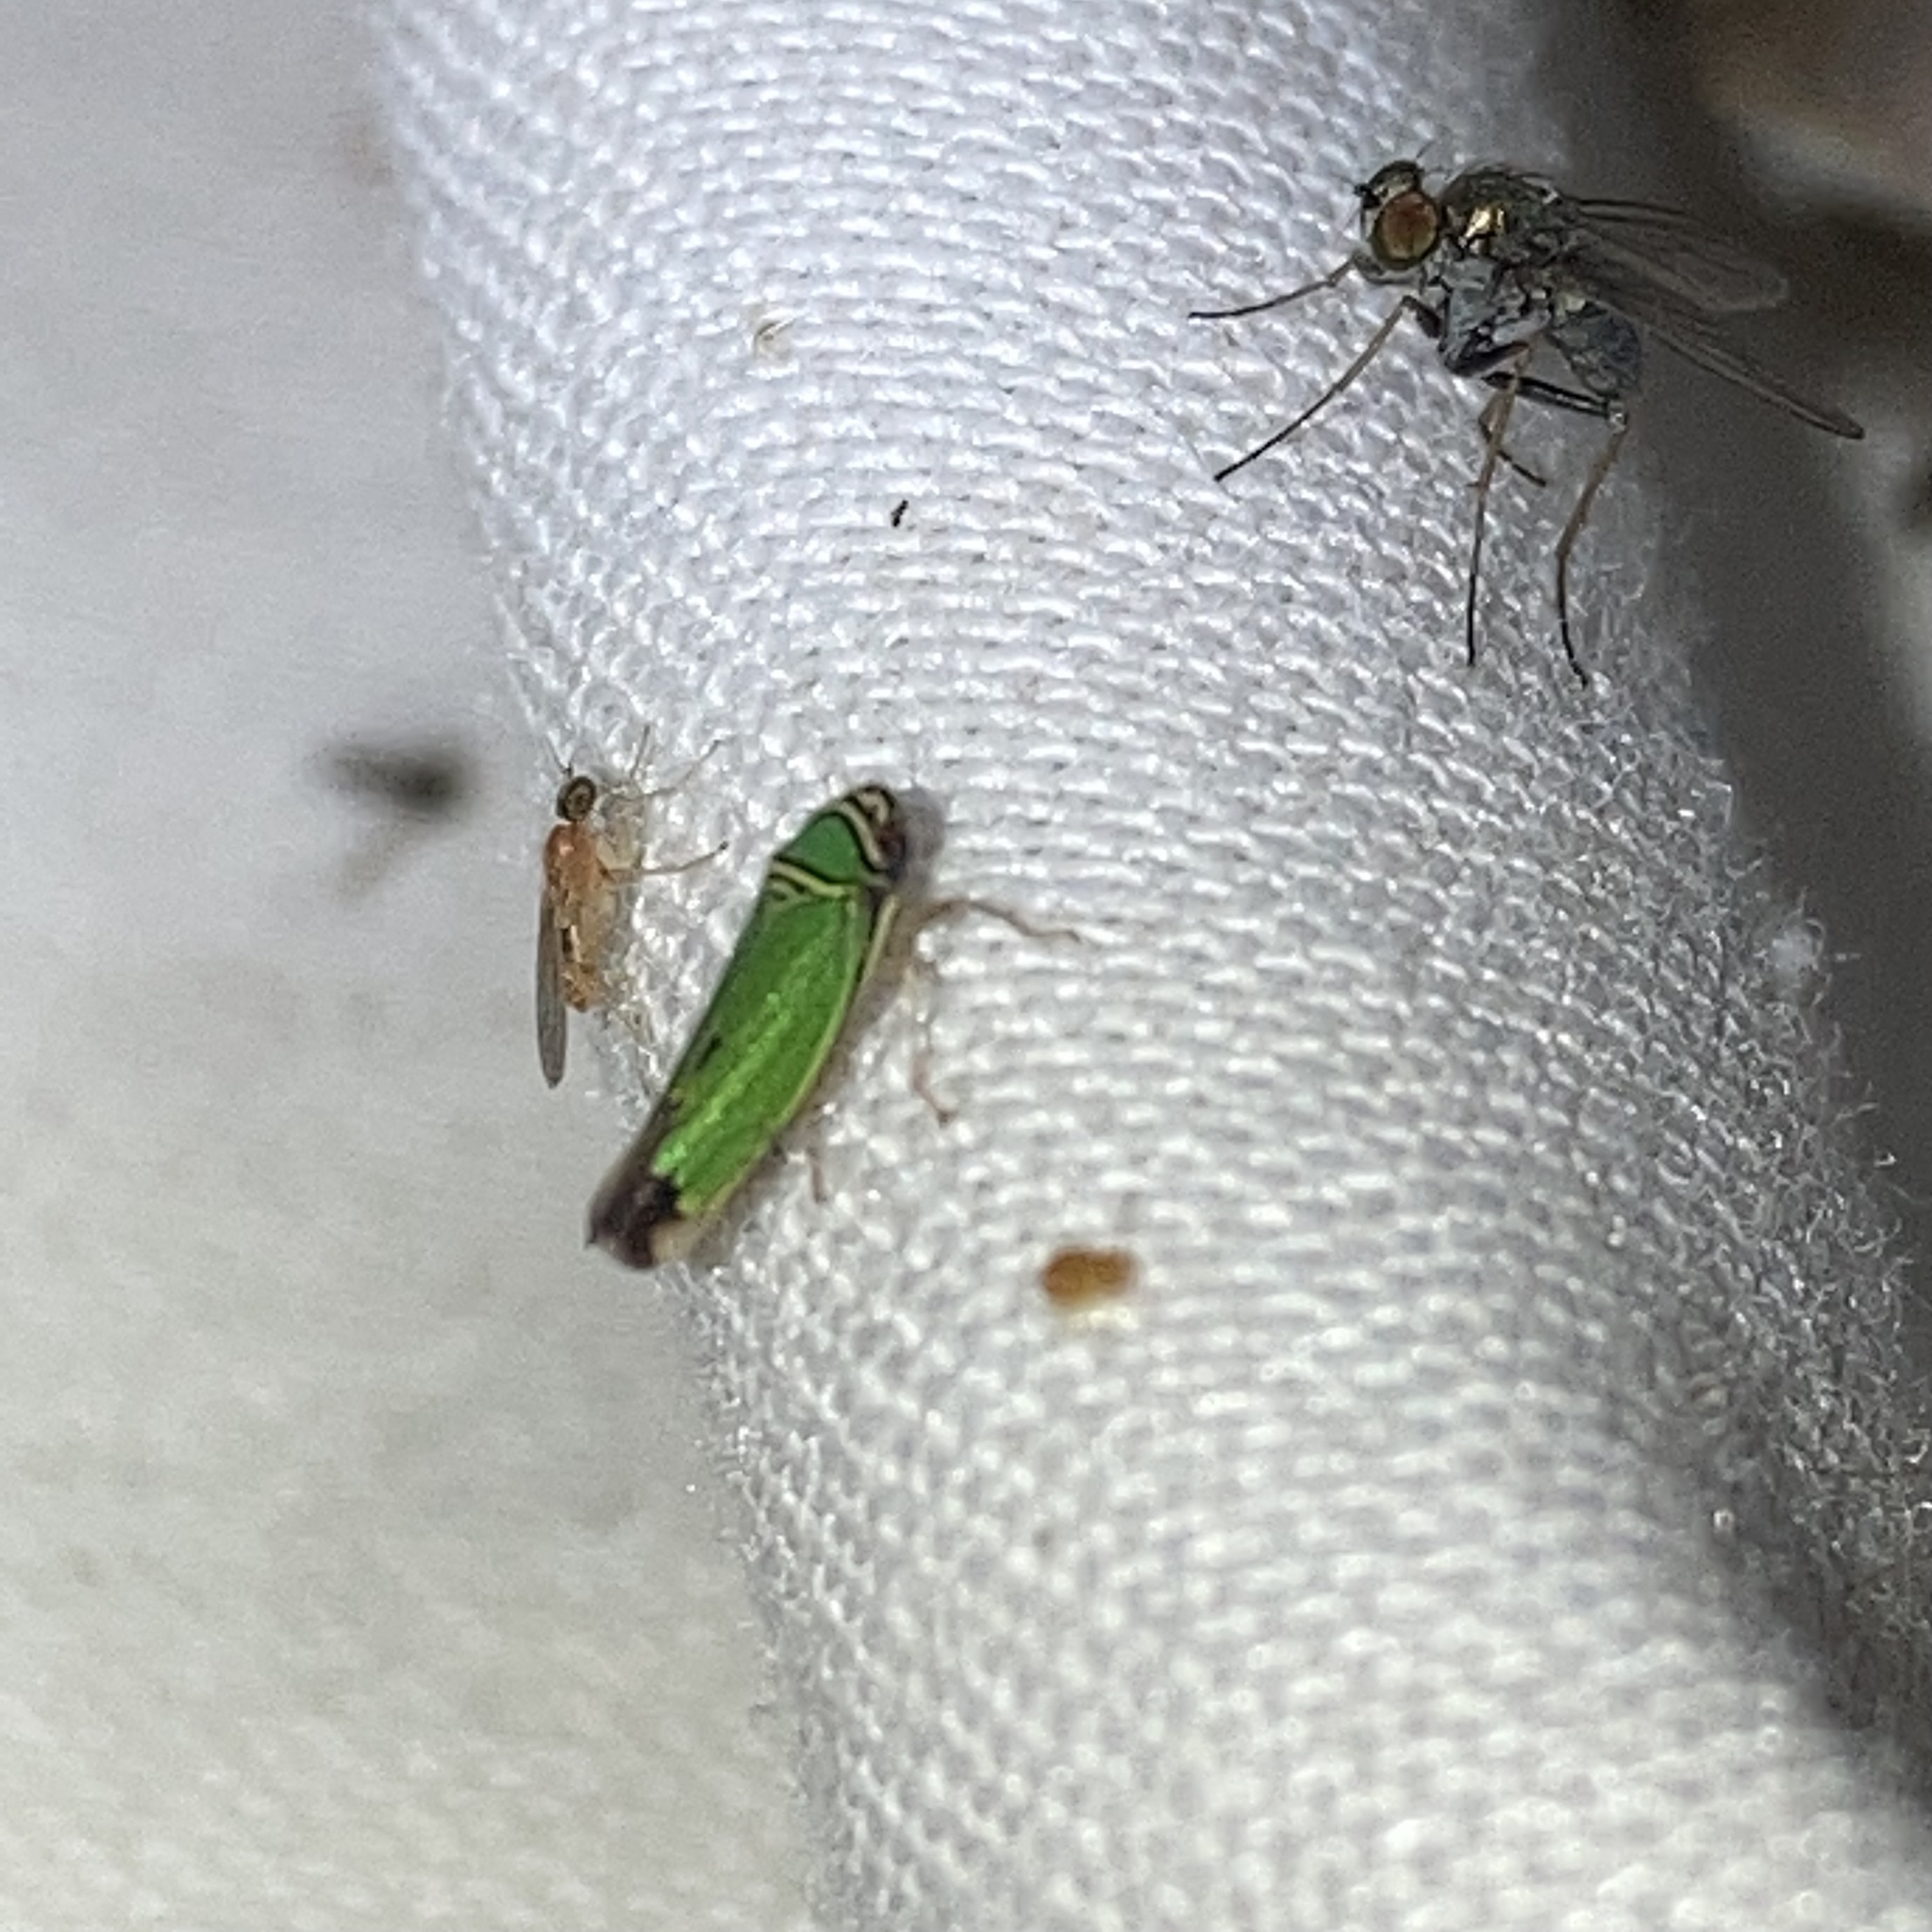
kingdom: Animalia
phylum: Arthropoda
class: Insecta
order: Hemiptera
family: Cicadellidae
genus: Tylozygus
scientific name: Tylozygus geometricus
